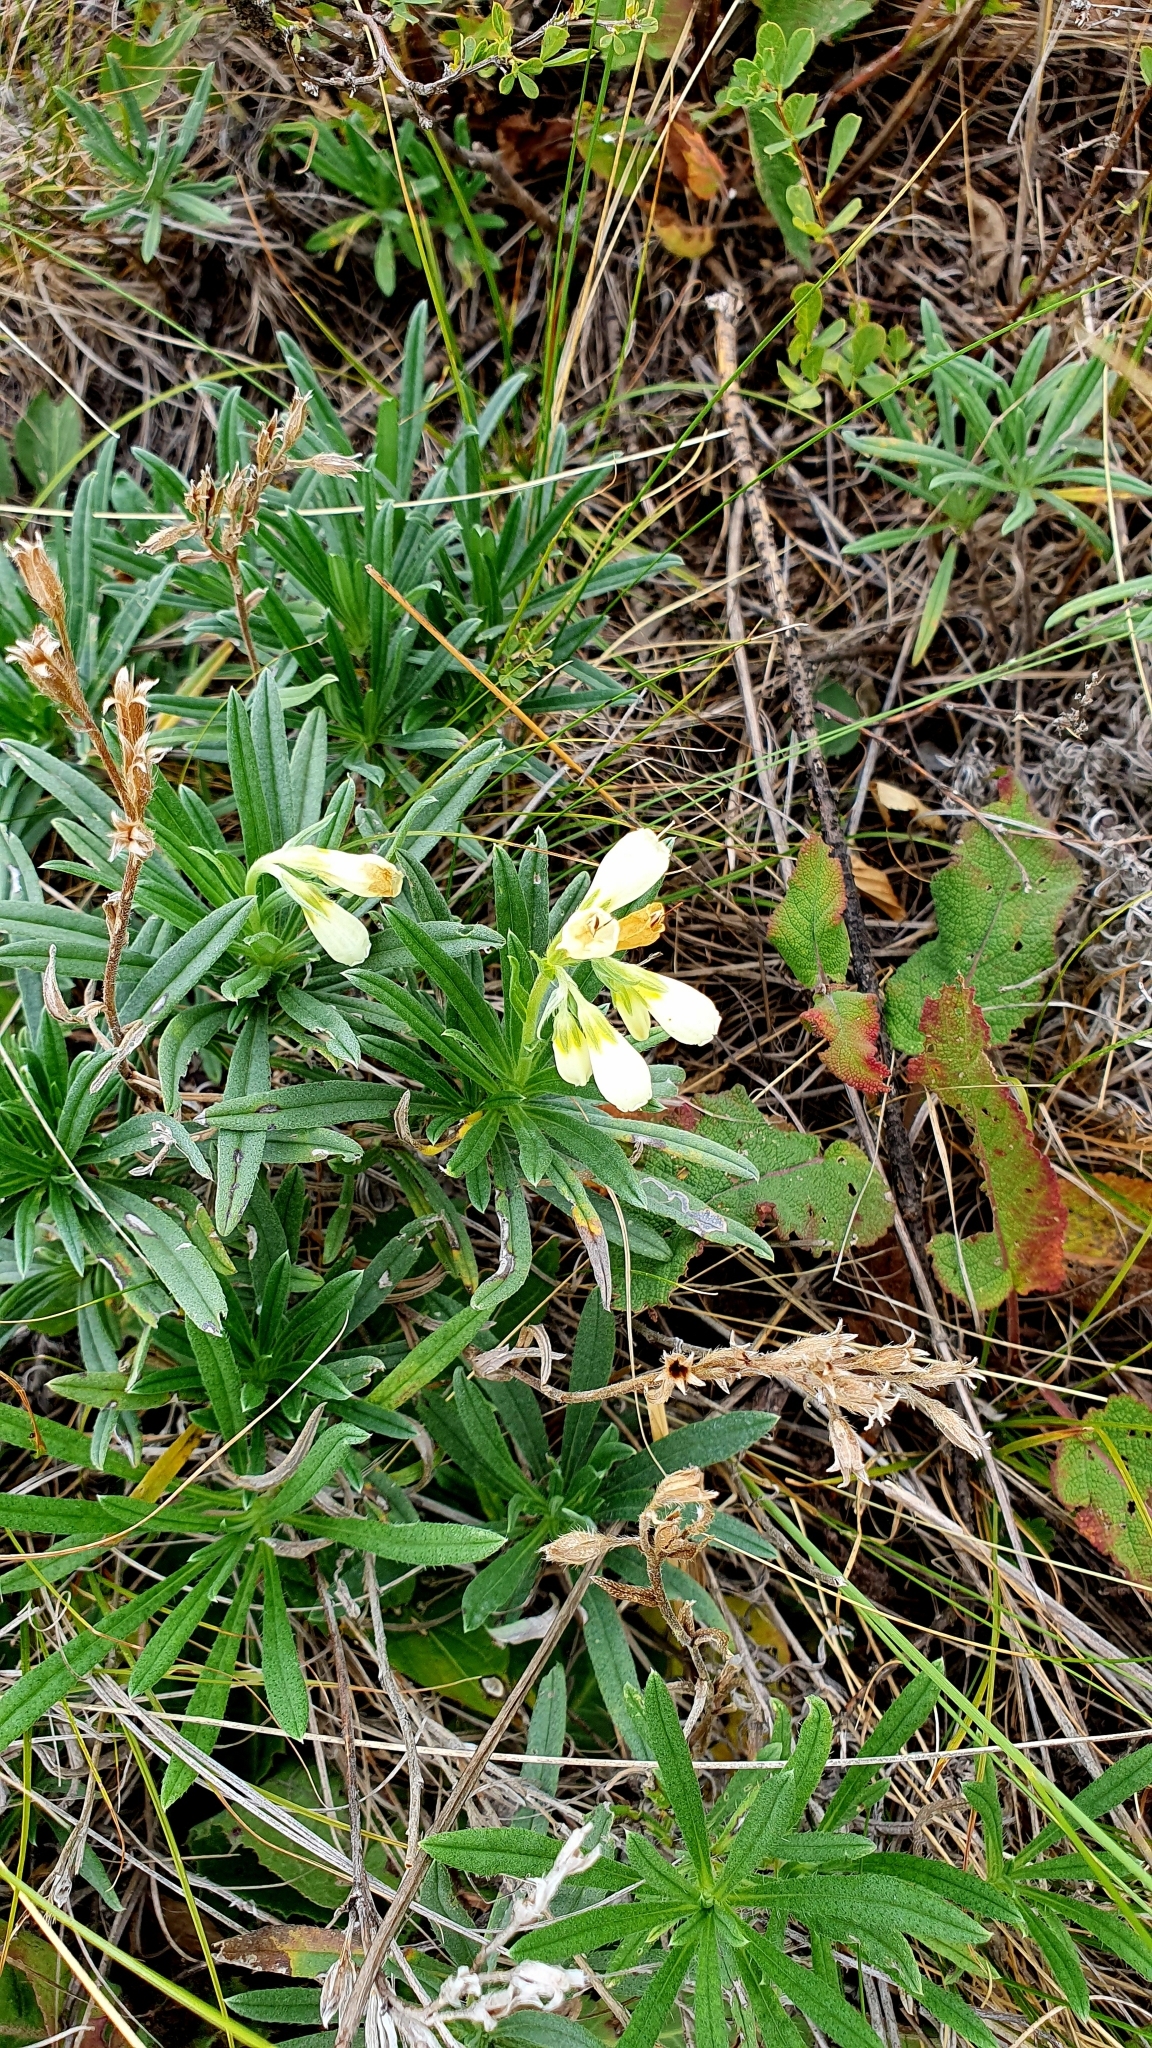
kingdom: Plantae
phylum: Tracheophyta
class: Magnoliopsida
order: Boraginales
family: Boraginaceae
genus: Onosma
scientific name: Onosma simplicissima
